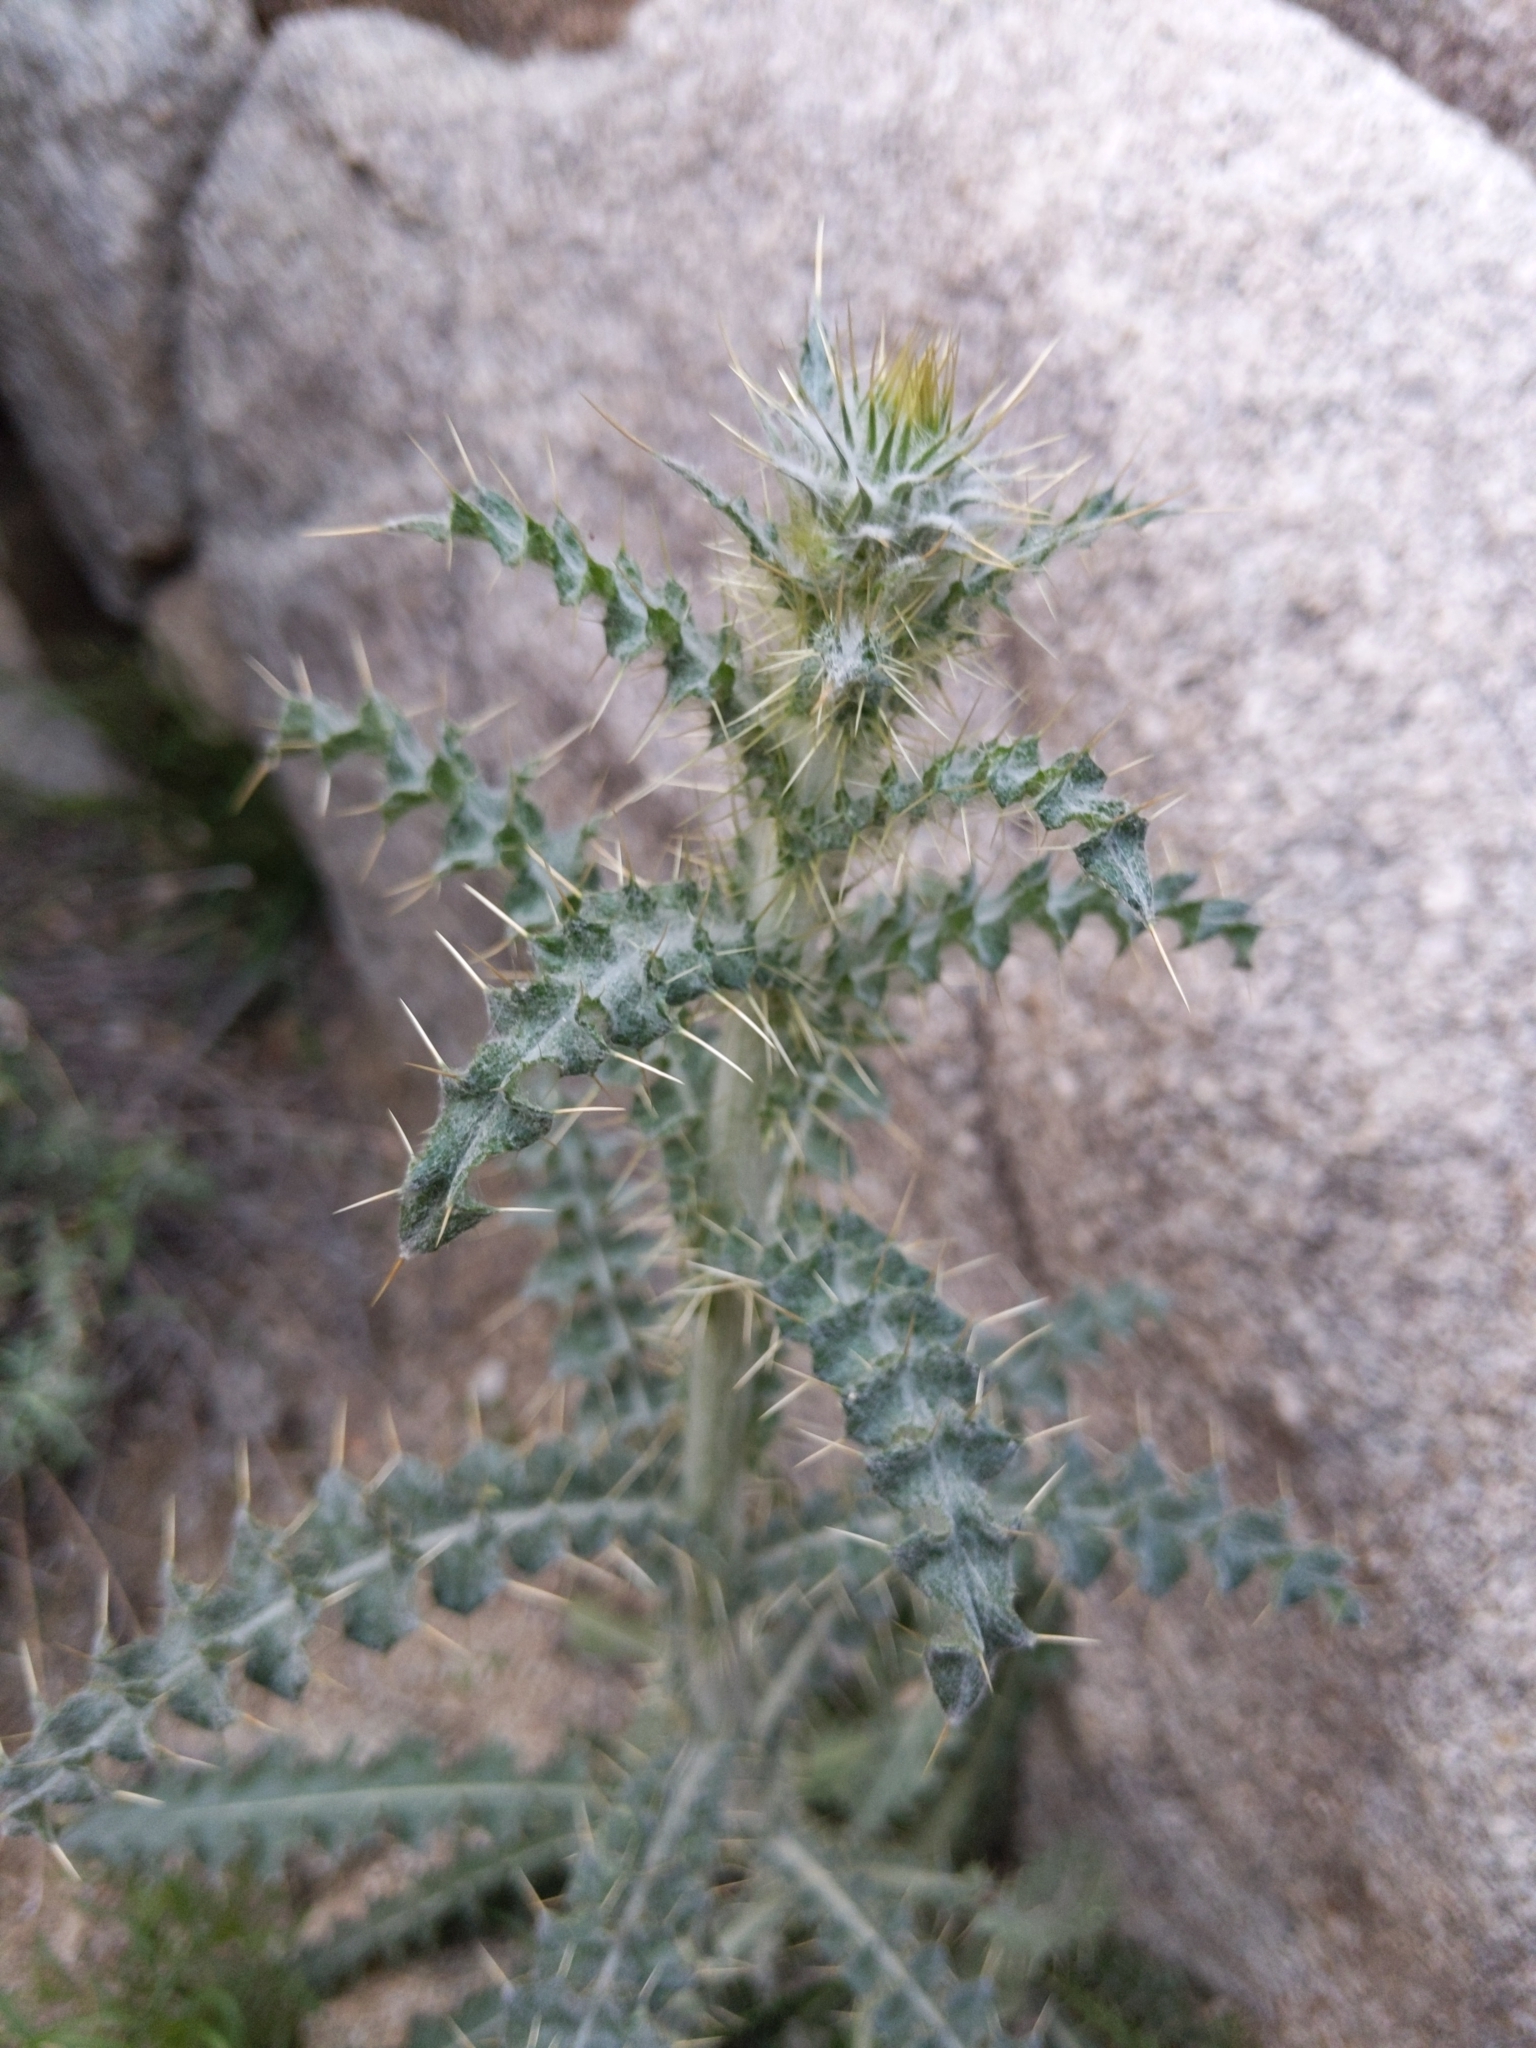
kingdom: Plantae
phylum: Tracheophyta
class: Magnoliopsida
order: Asterales
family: Asteraceae
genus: Cirsium
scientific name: Cirsium neomexicanum
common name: New mexico thistle
